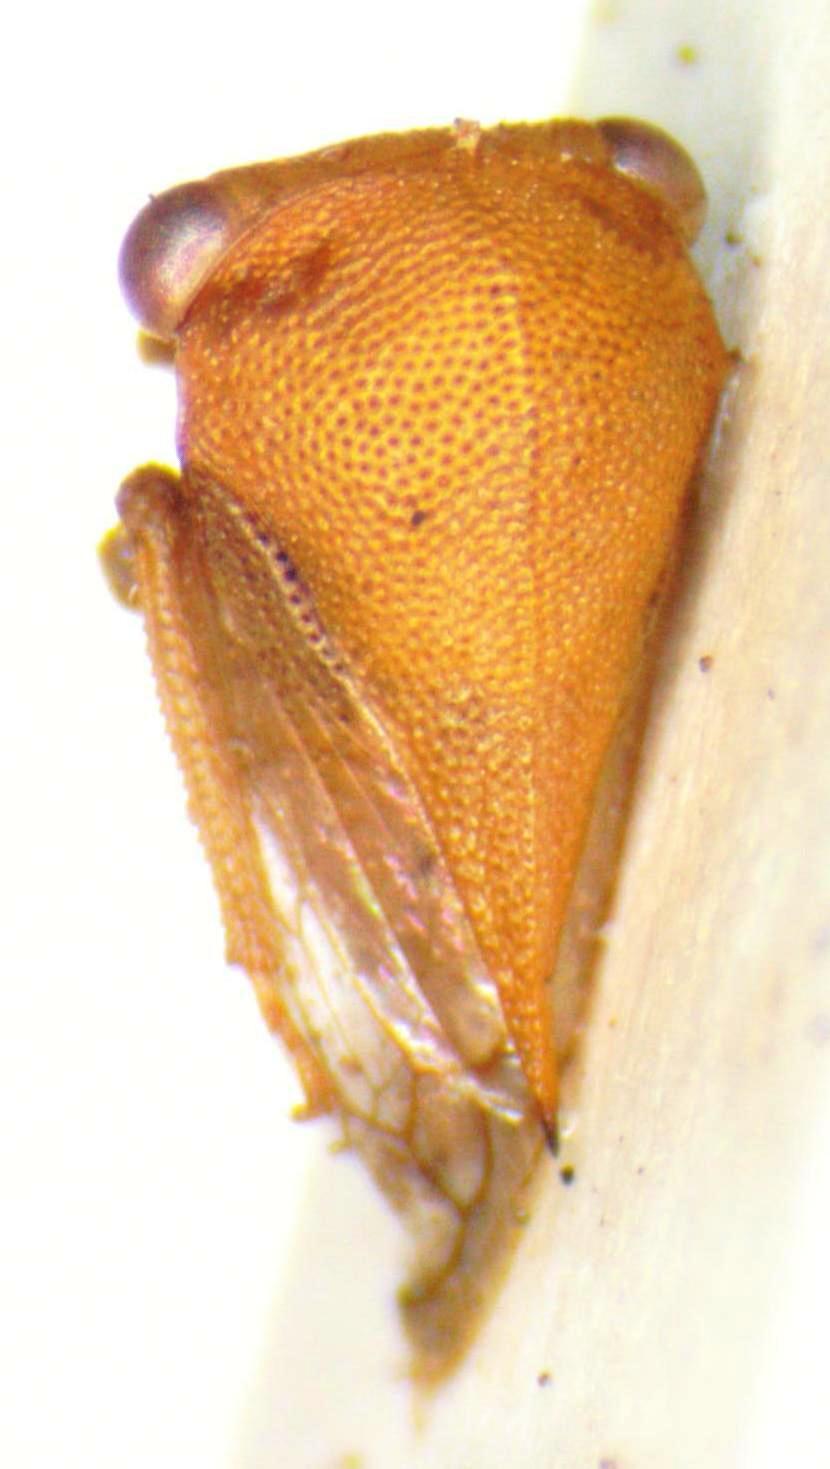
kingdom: Animalia
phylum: Arthropoda
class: Insecta
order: Hemiptera
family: Membracidae
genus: Procyrta
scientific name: Procyrta pectoralis
